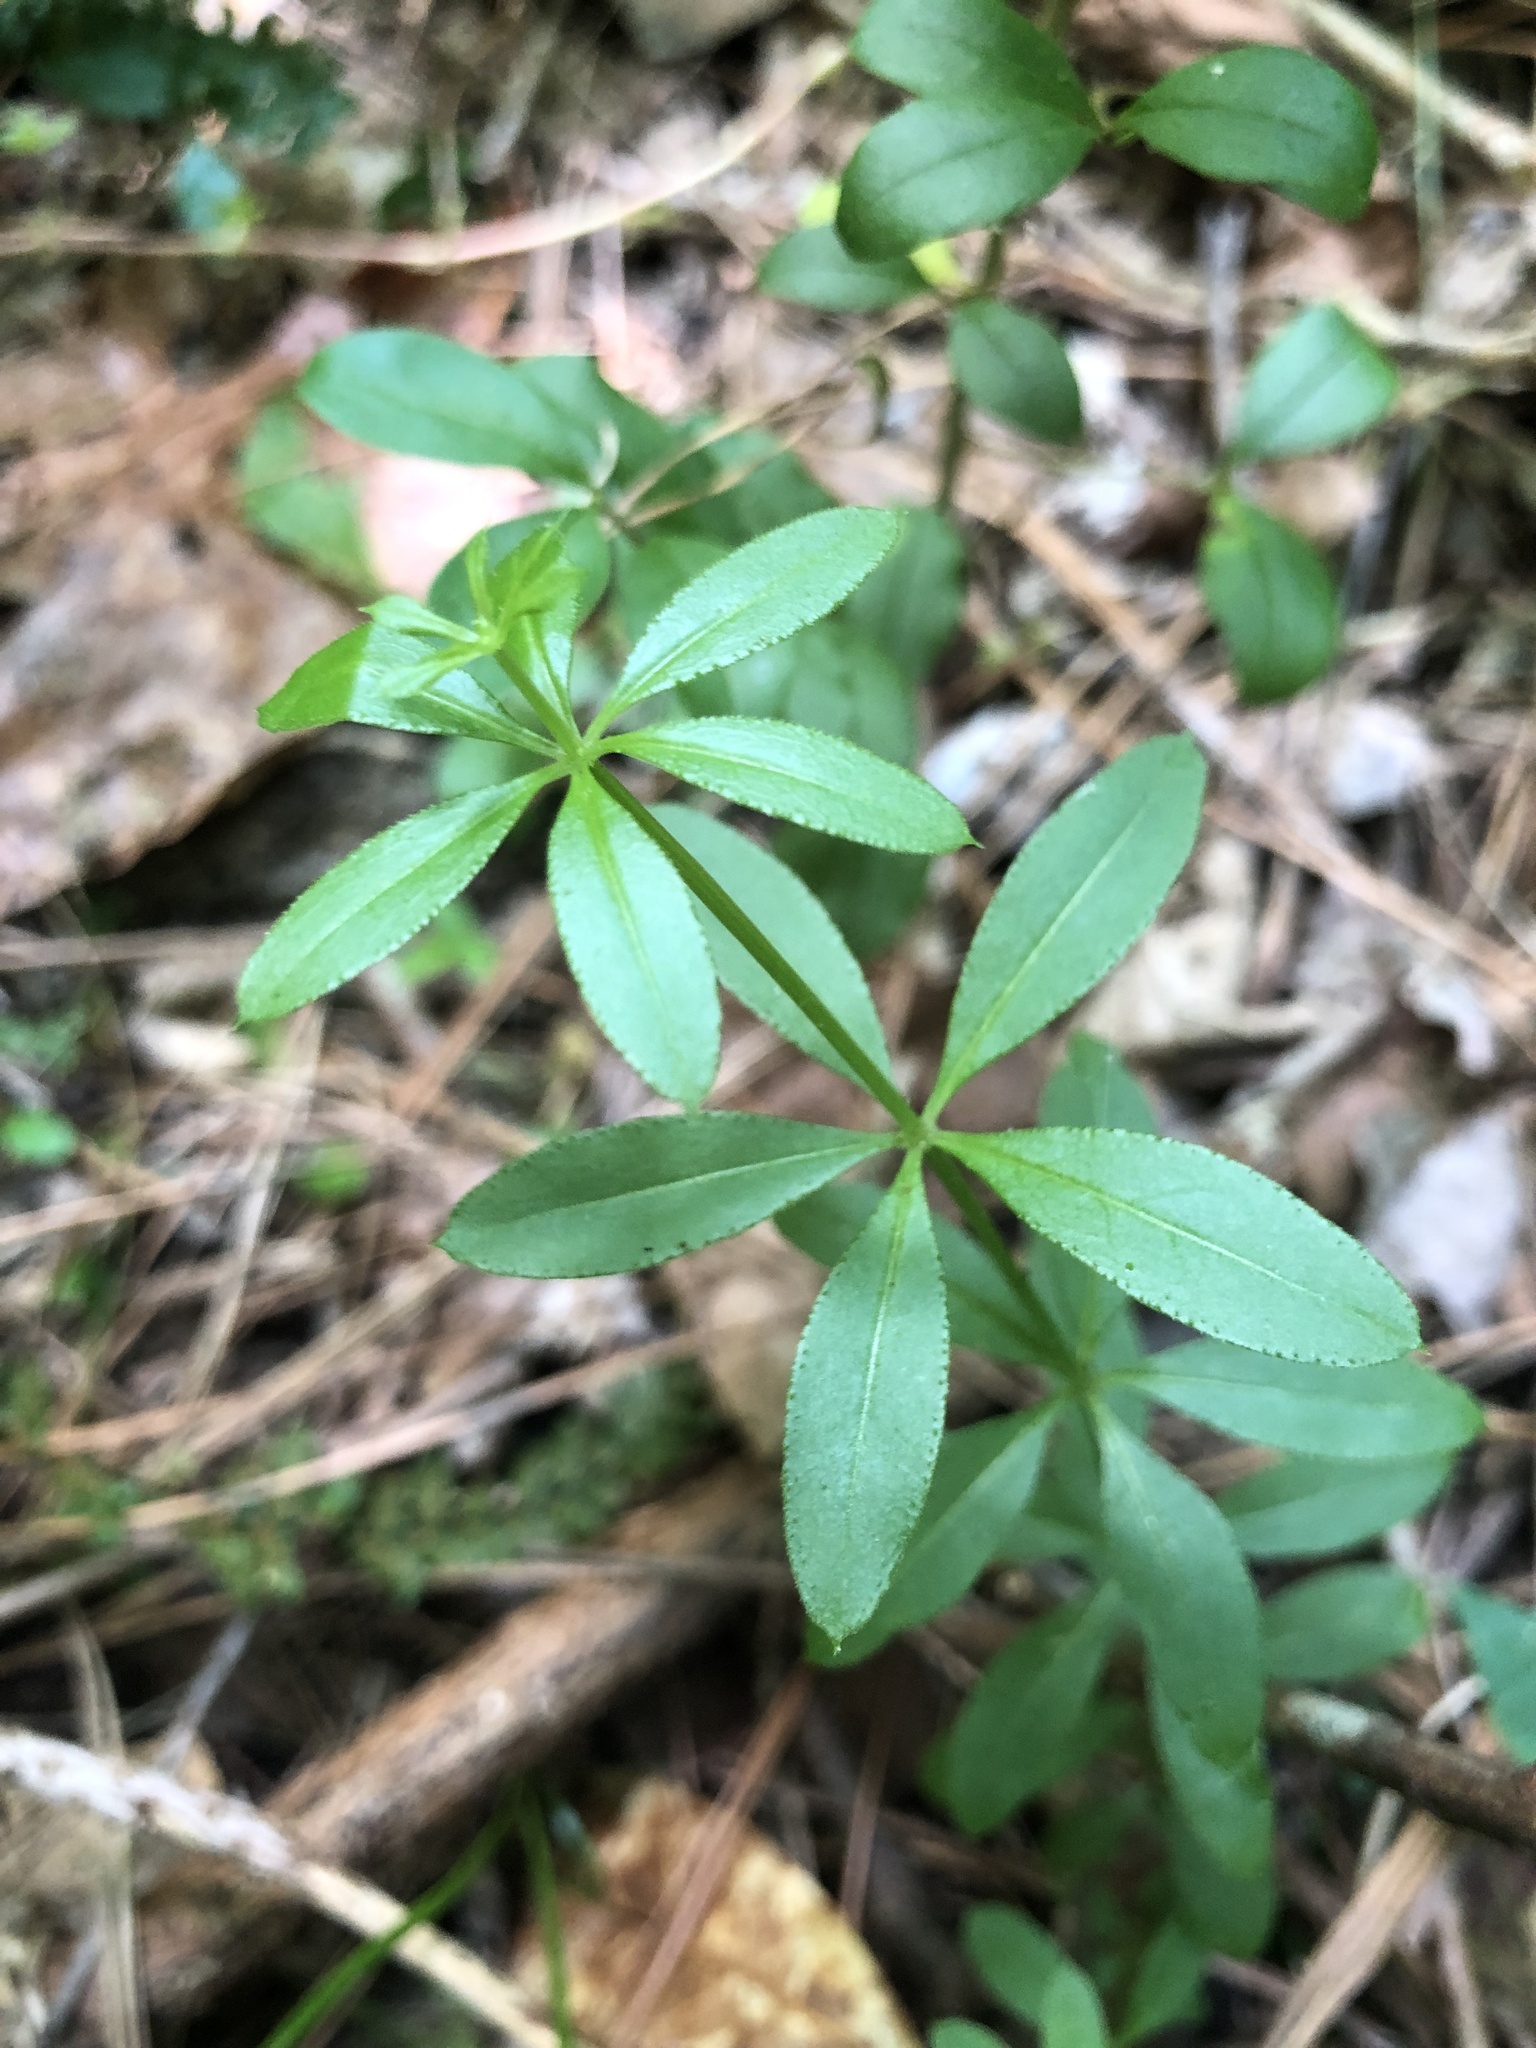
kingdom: Plantae
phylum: Tracheophyta
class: Magnoliopsida
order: Gentianales
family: Rubiaceae
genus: Galium
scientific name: Galium triflorum
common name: Fragrant bedstraw
